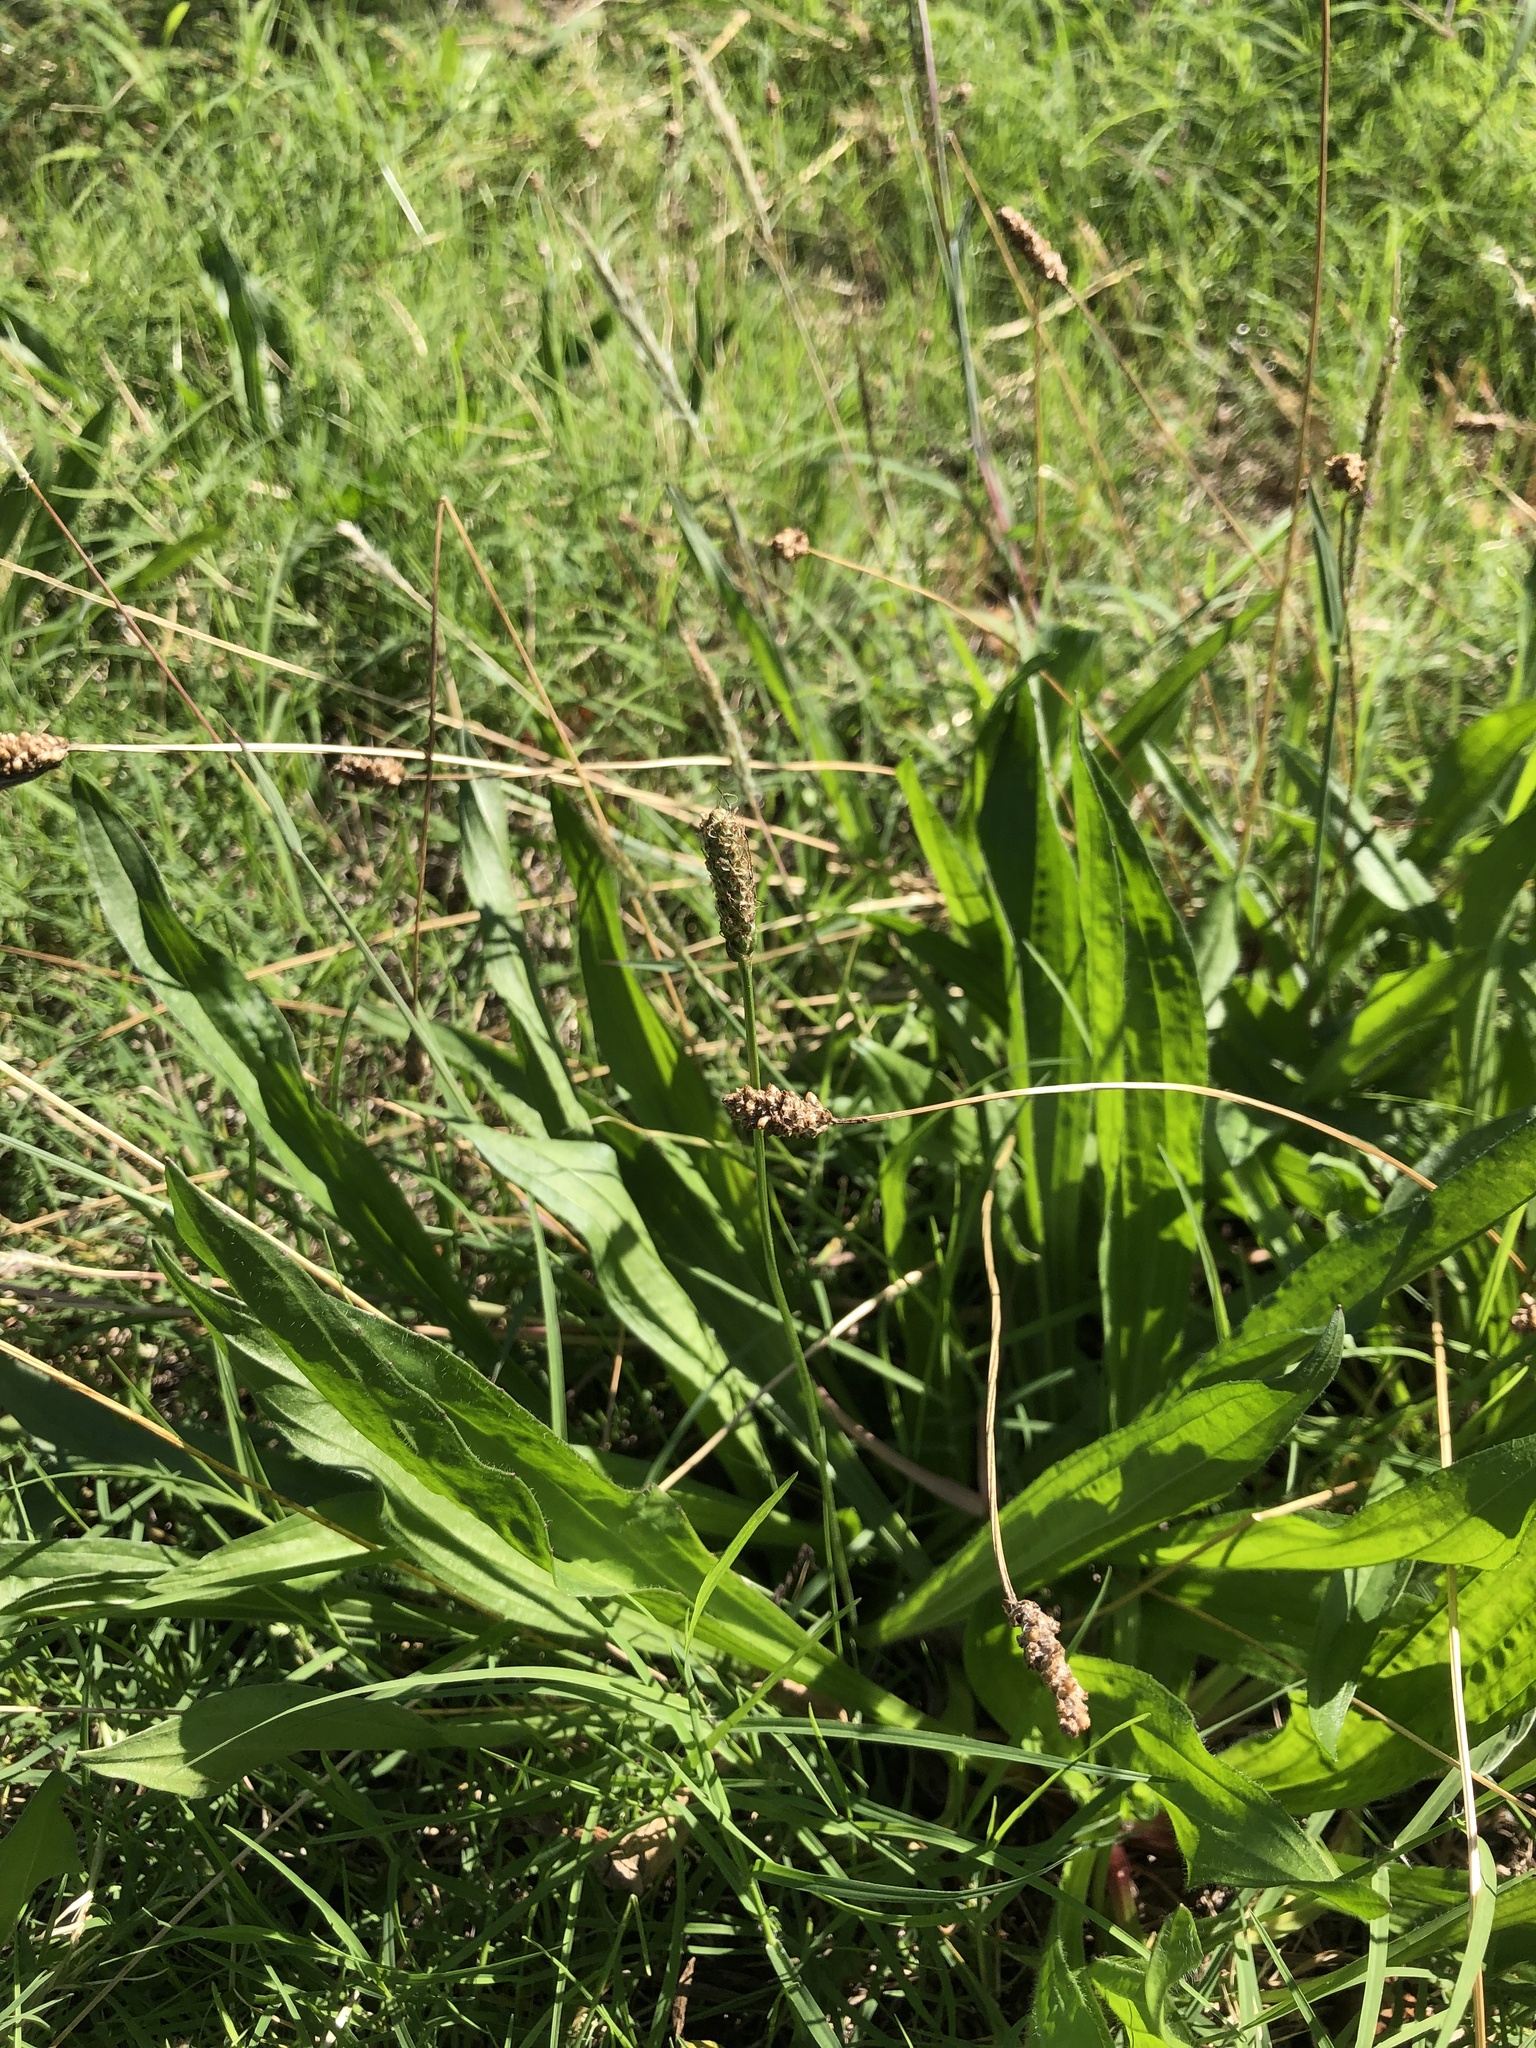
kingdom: Plantae
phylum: Tracheophyta
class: Magnoliopsida
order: Lamiales
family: Plantaginaceae
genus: Plantago
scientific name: Plantago lanceolata
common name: Ribwort plantain
